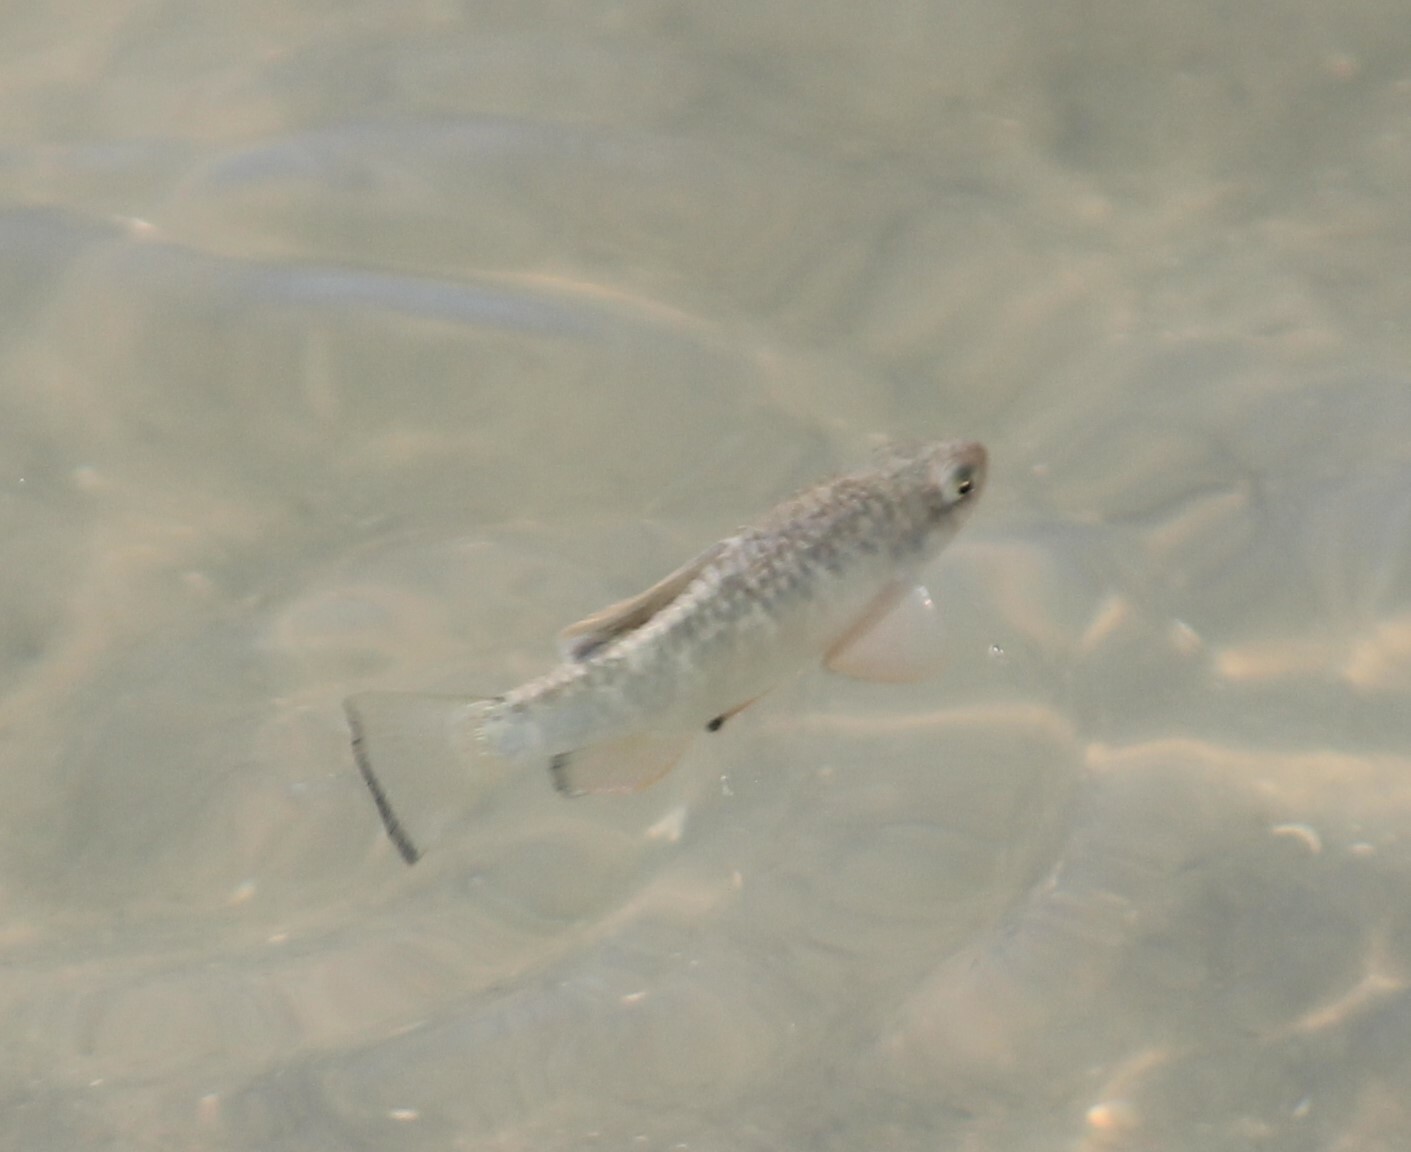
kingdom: Animalia
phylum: Chordata
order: Cyprinodontiformes
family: Cyprinodontidae
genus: Cyprinodon
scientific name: Cyprinodon variegatus
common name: Sheepshead minnow
